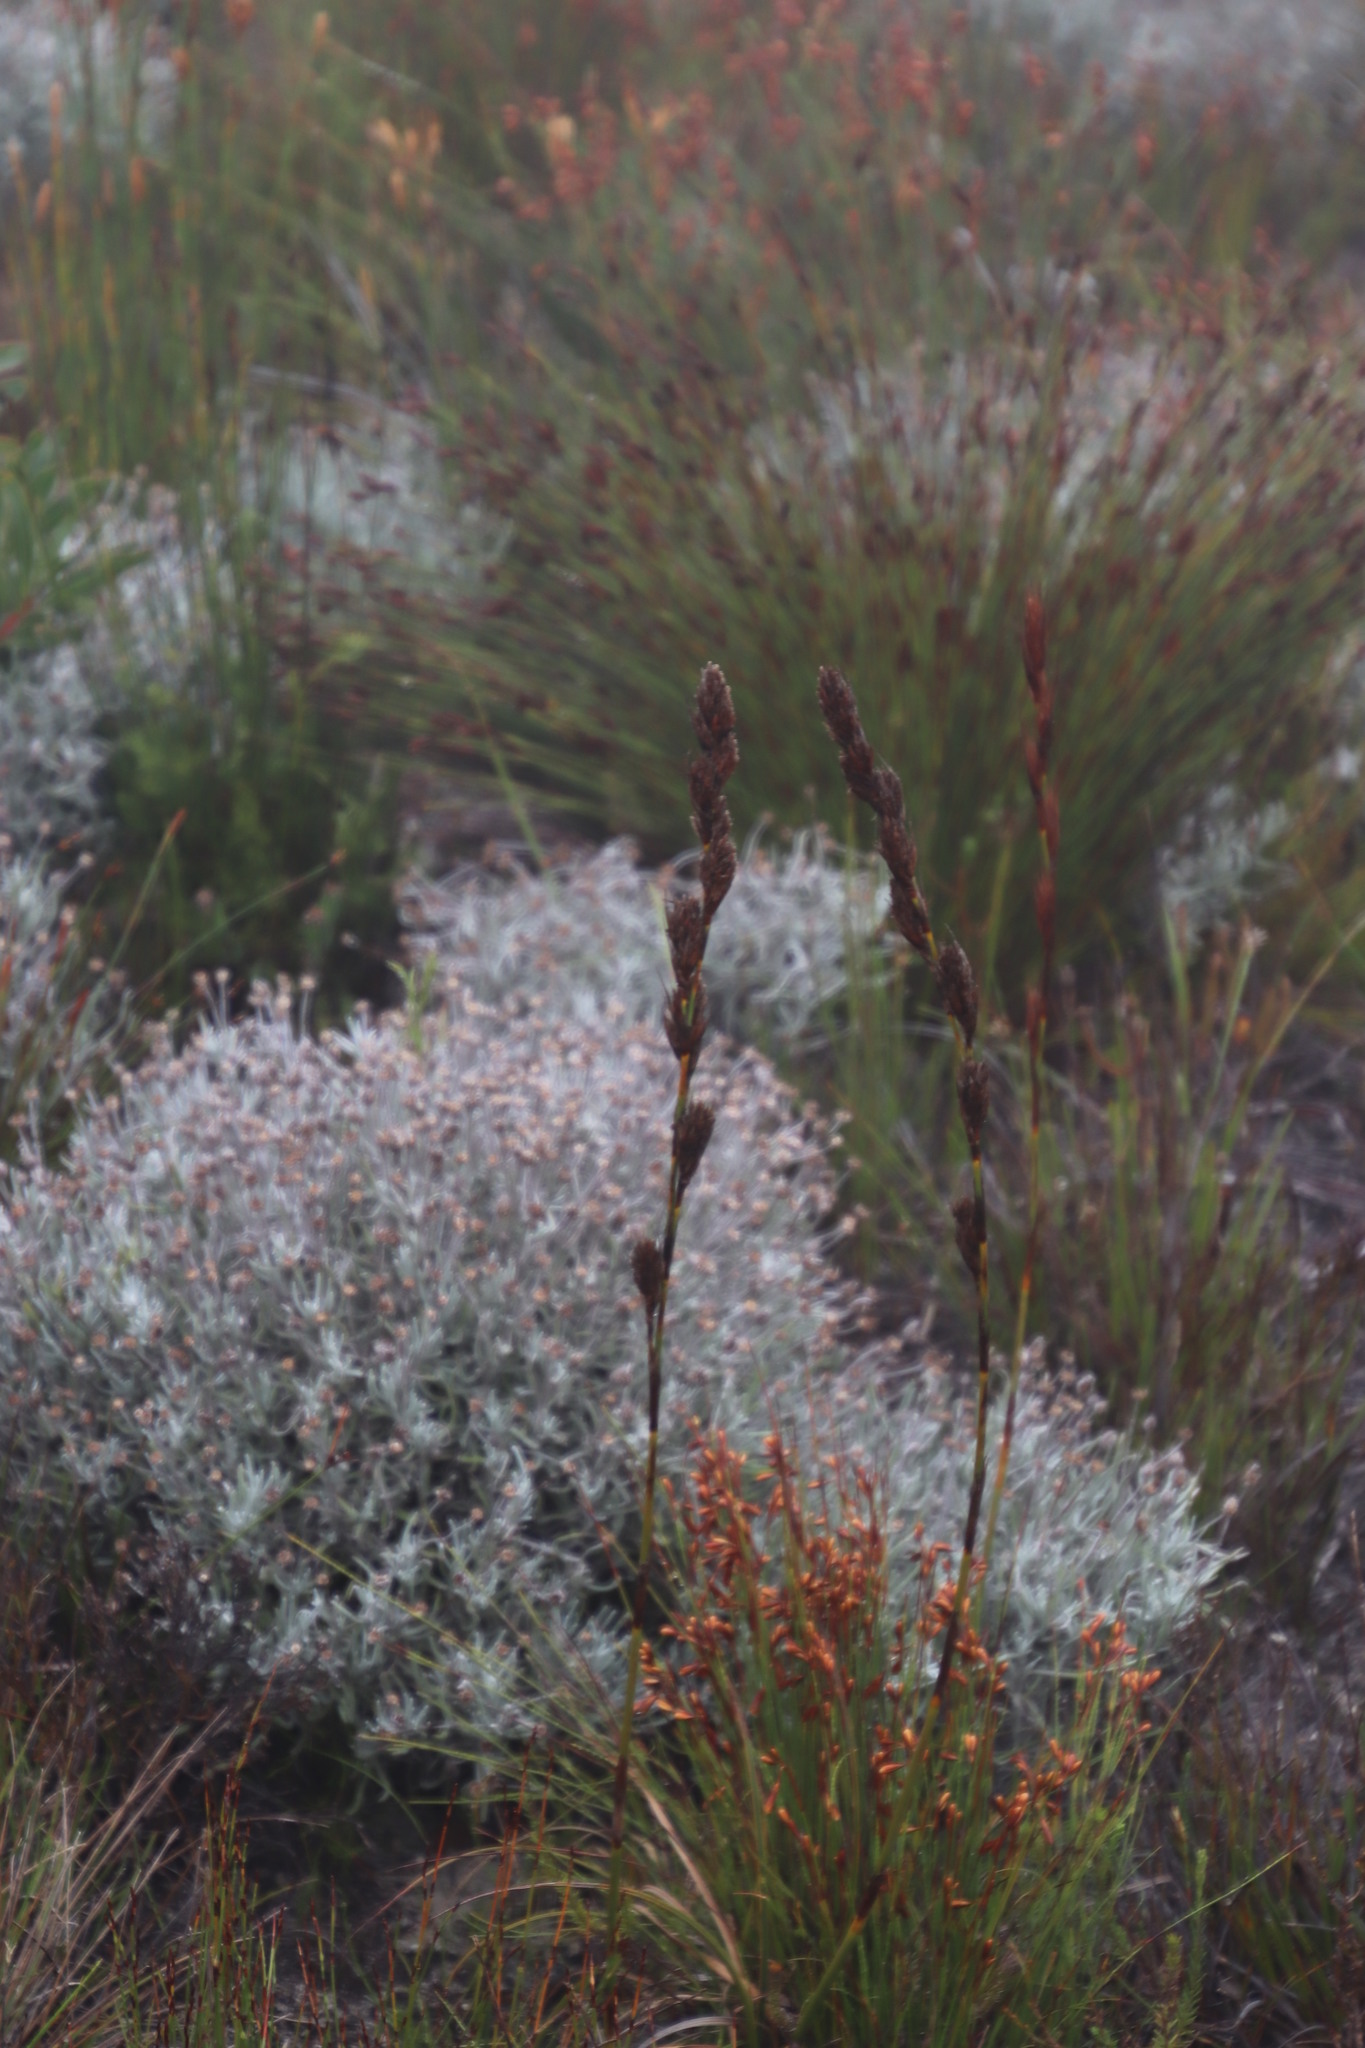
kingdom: Plantae
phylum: Tracheophyta
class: Magnoliopsida
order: Asterales
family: Asteraceae
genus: Syncarpha
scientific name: Syncarpha gnaphaloides
